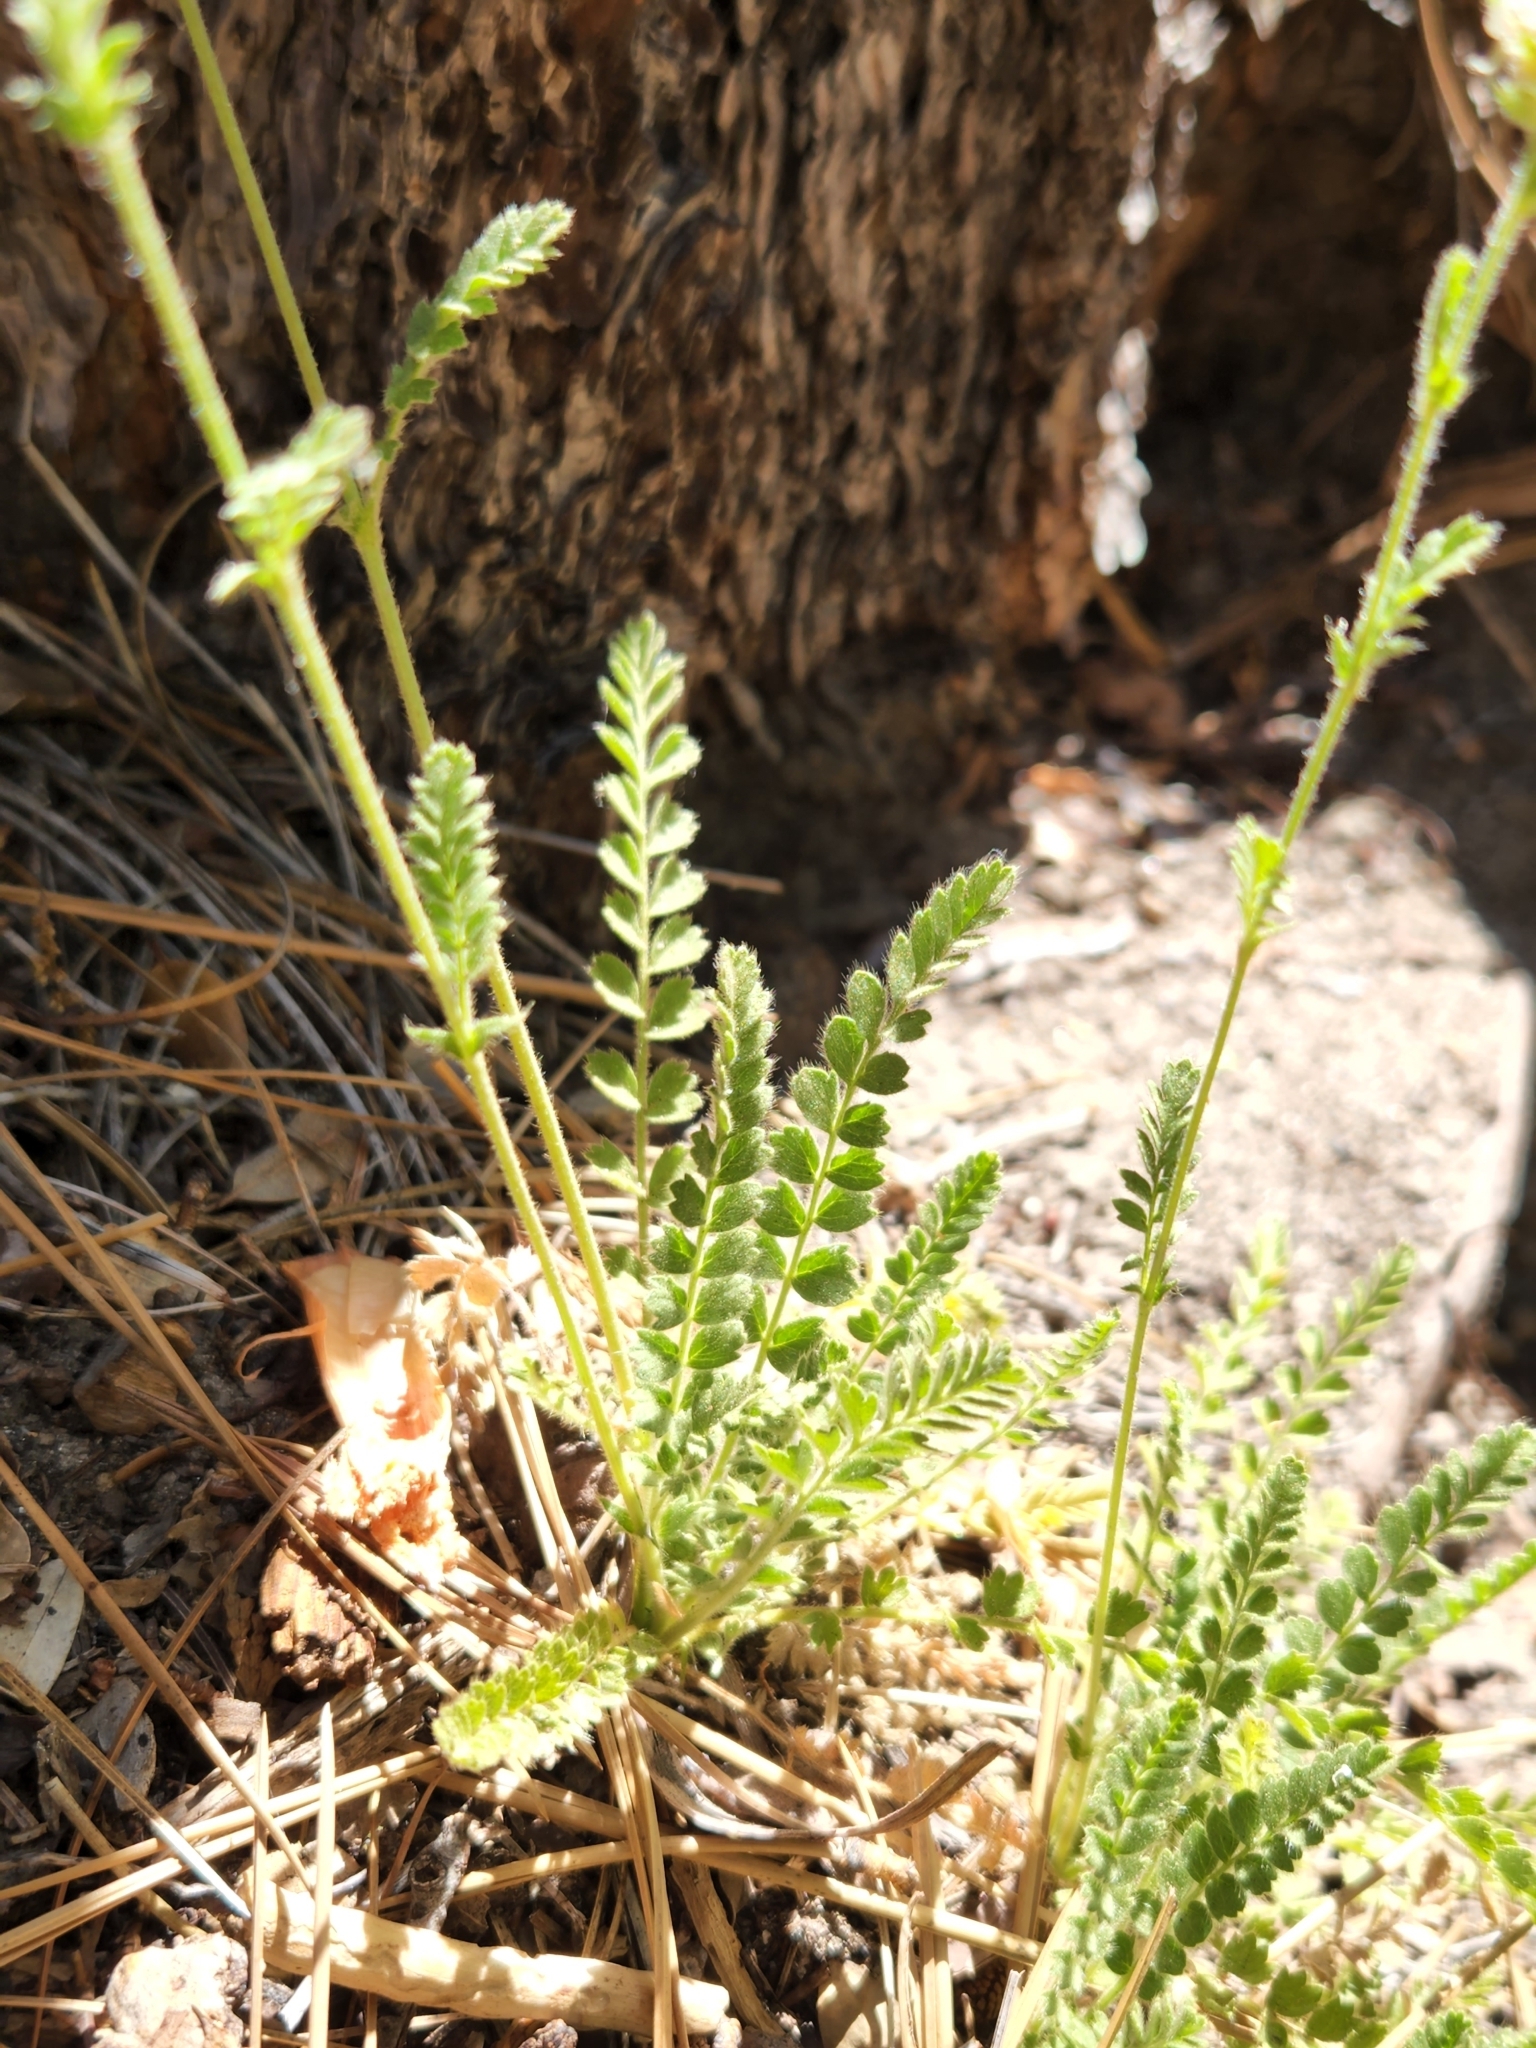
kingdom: Plantae
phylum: Tracheophyta
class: Magnoliopsida
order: Rosales
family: Rosaceae
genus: Potentilla
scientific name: Potentilla clevelandii
